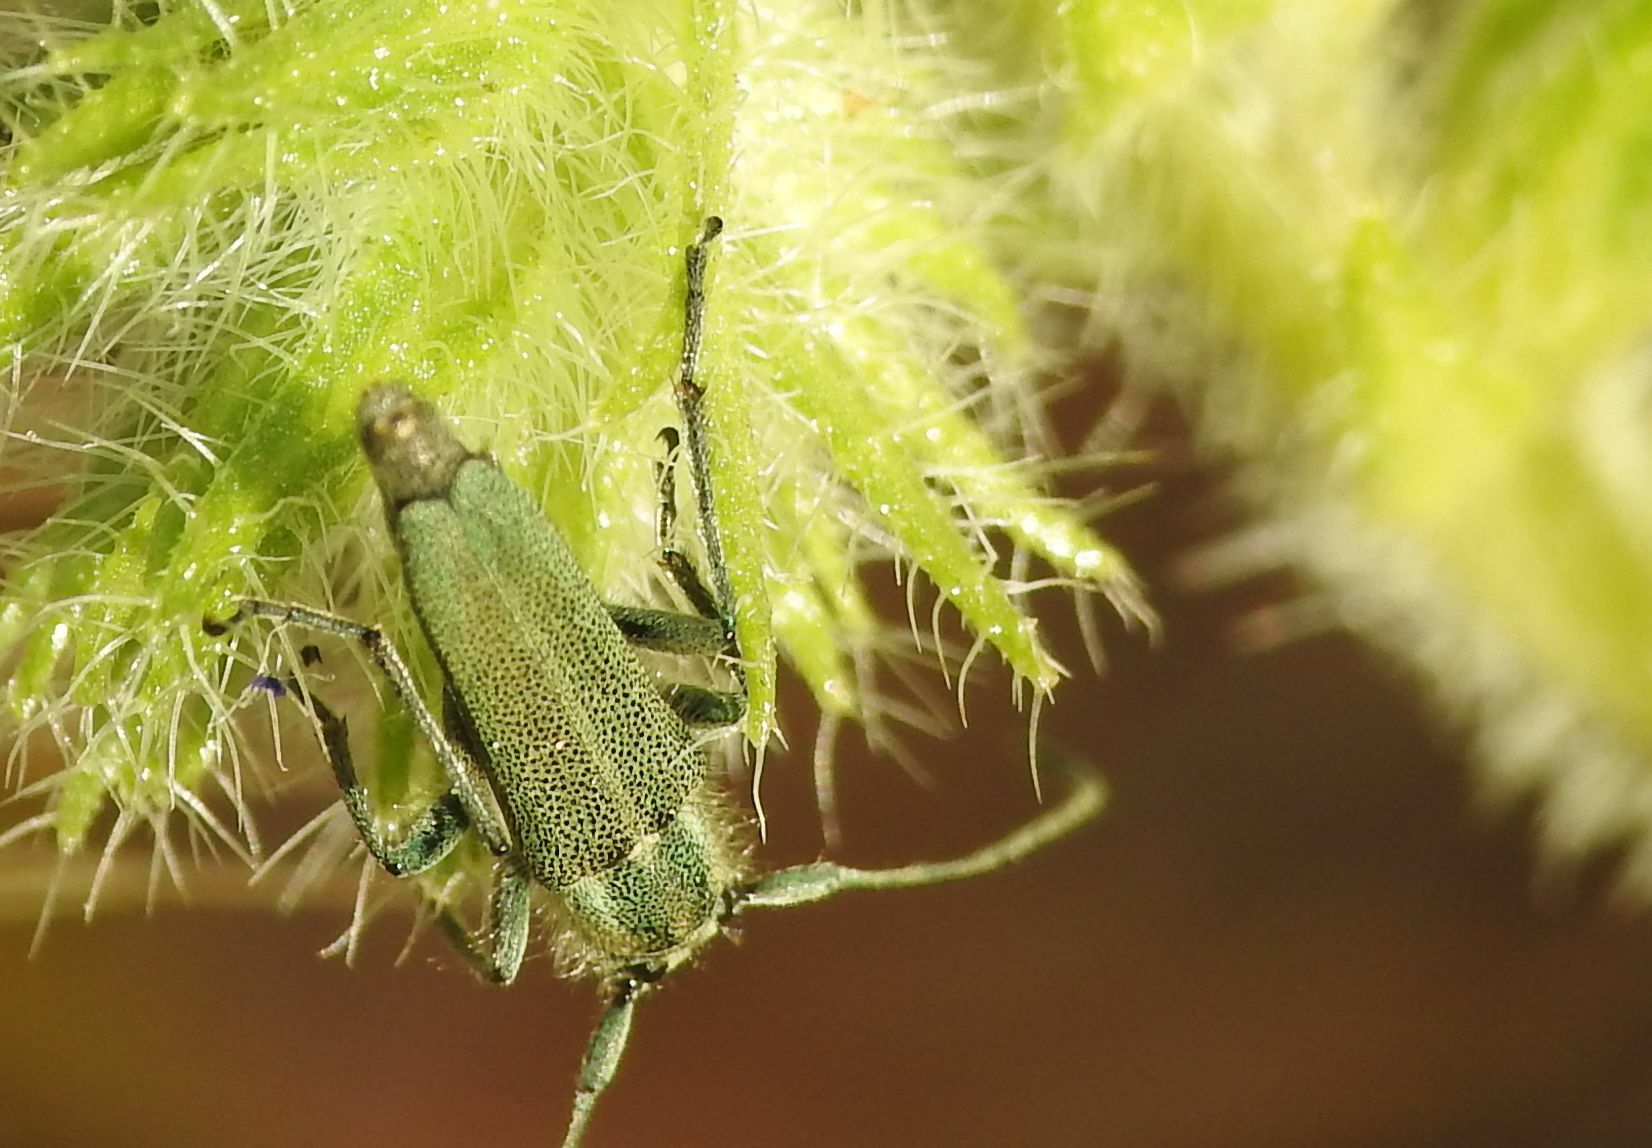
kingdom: Animalia
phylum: Arthropoda
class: Insecta
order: Coleoptera
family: Cerambycidae
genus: Phytoecia
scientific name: Phytoecia coerulescens
